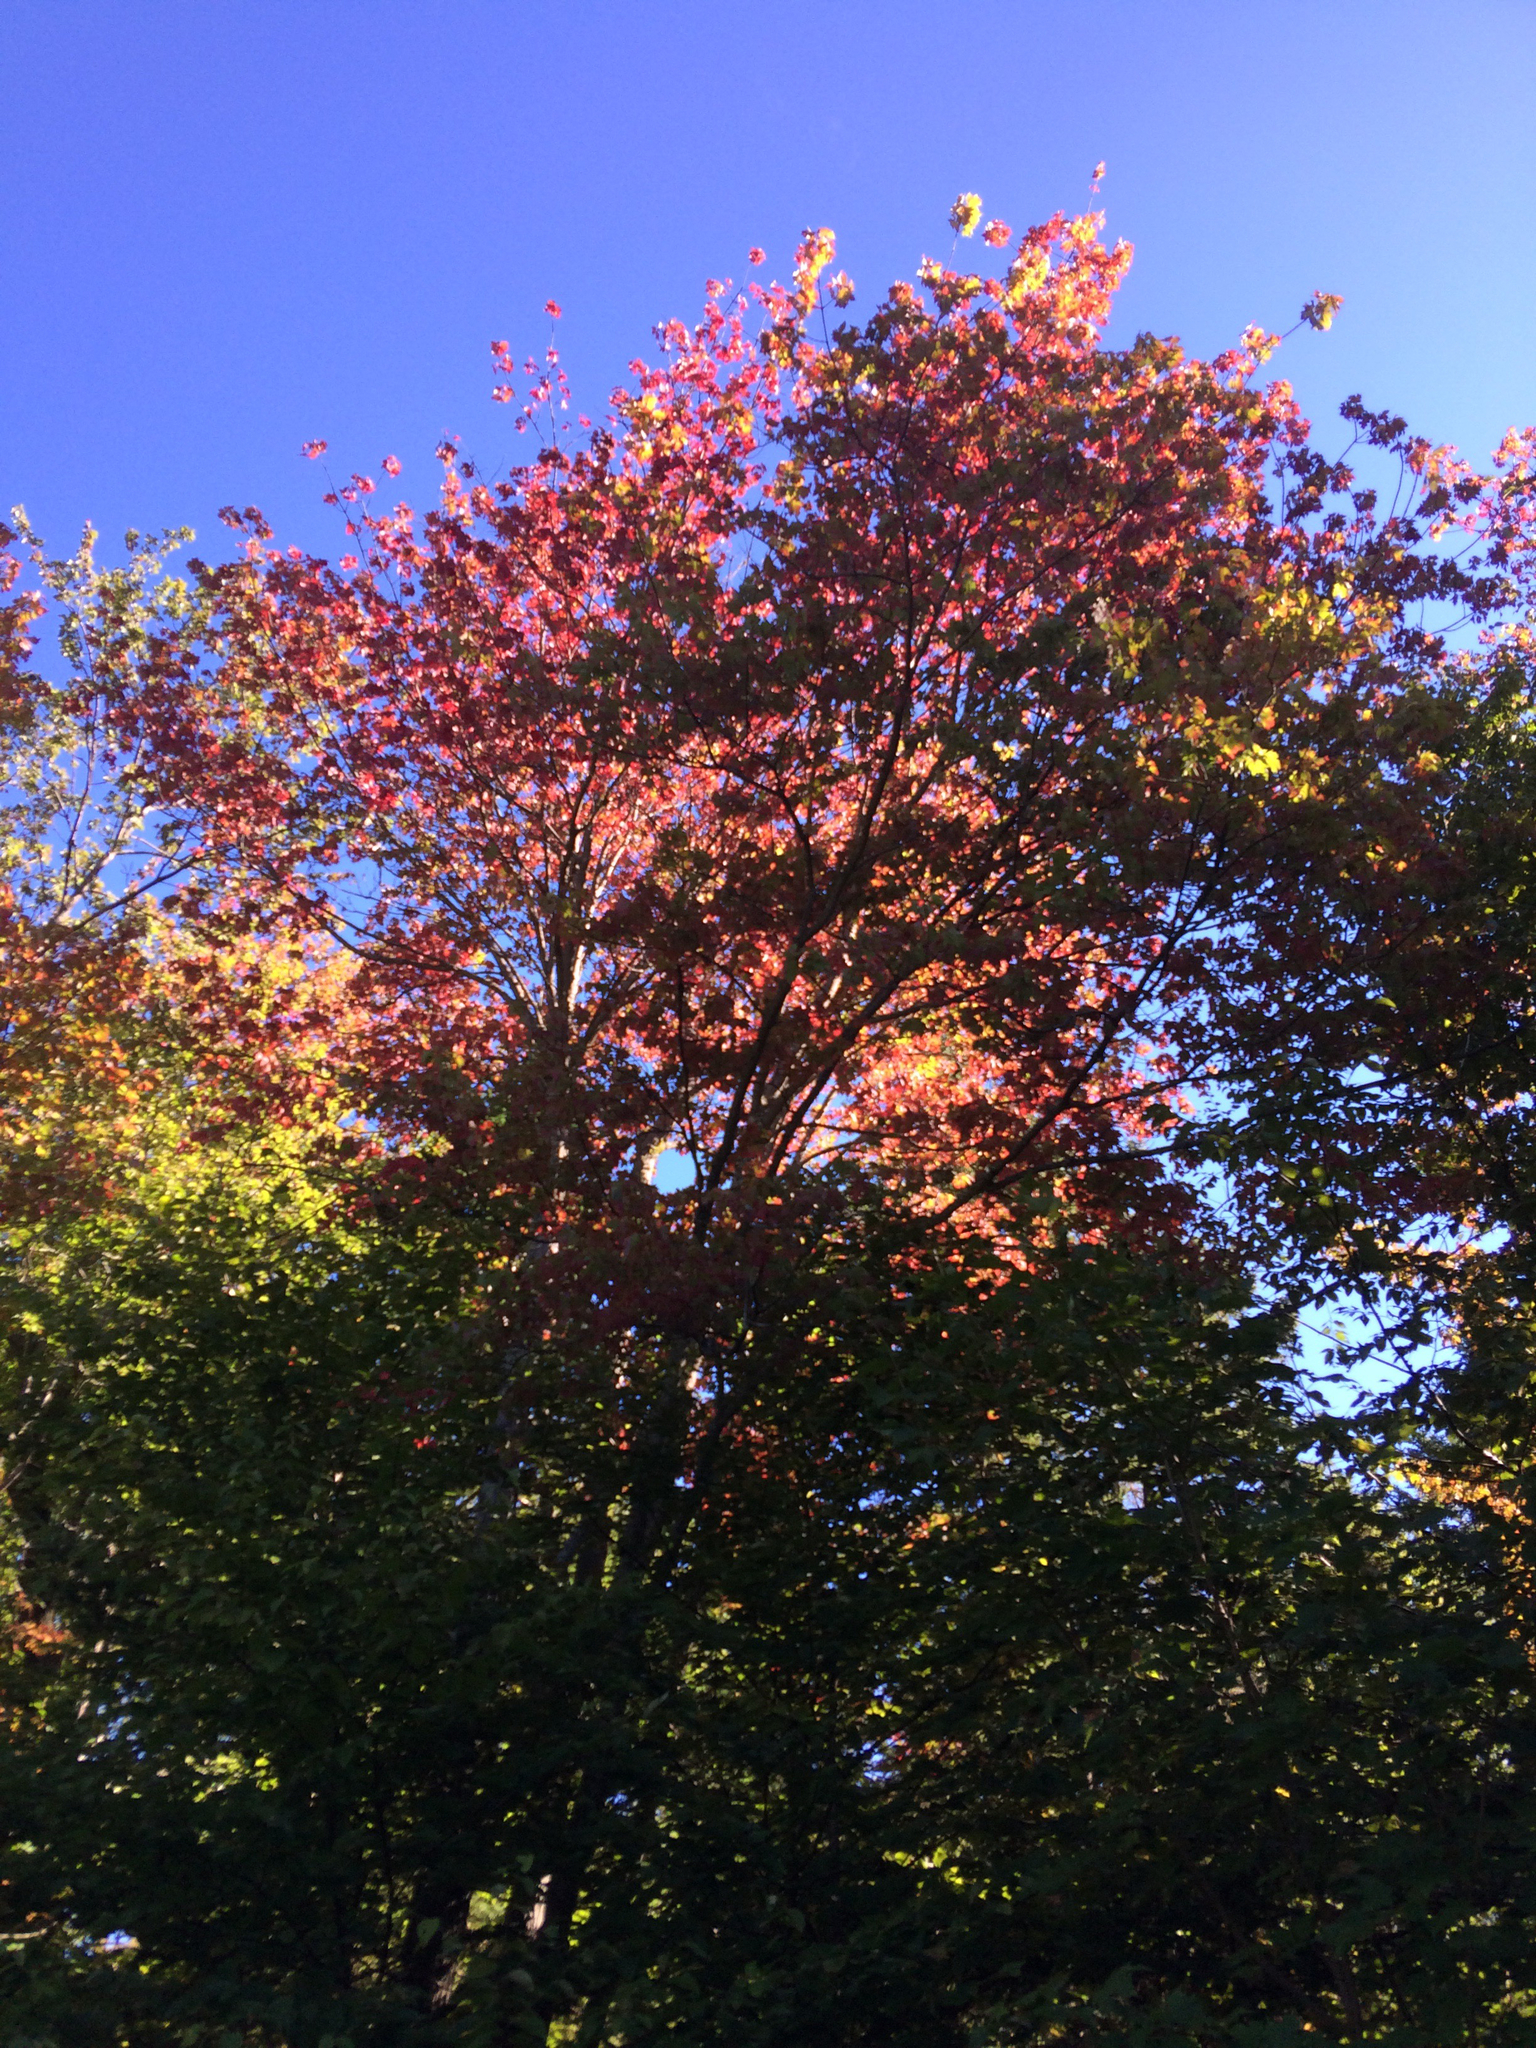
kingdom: Plantae
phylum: Tracheophyta
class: Magnoliopsida
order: Sapindales
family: Sapindaceae
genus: Acer
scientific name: Acer rubrum
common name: Red maple
